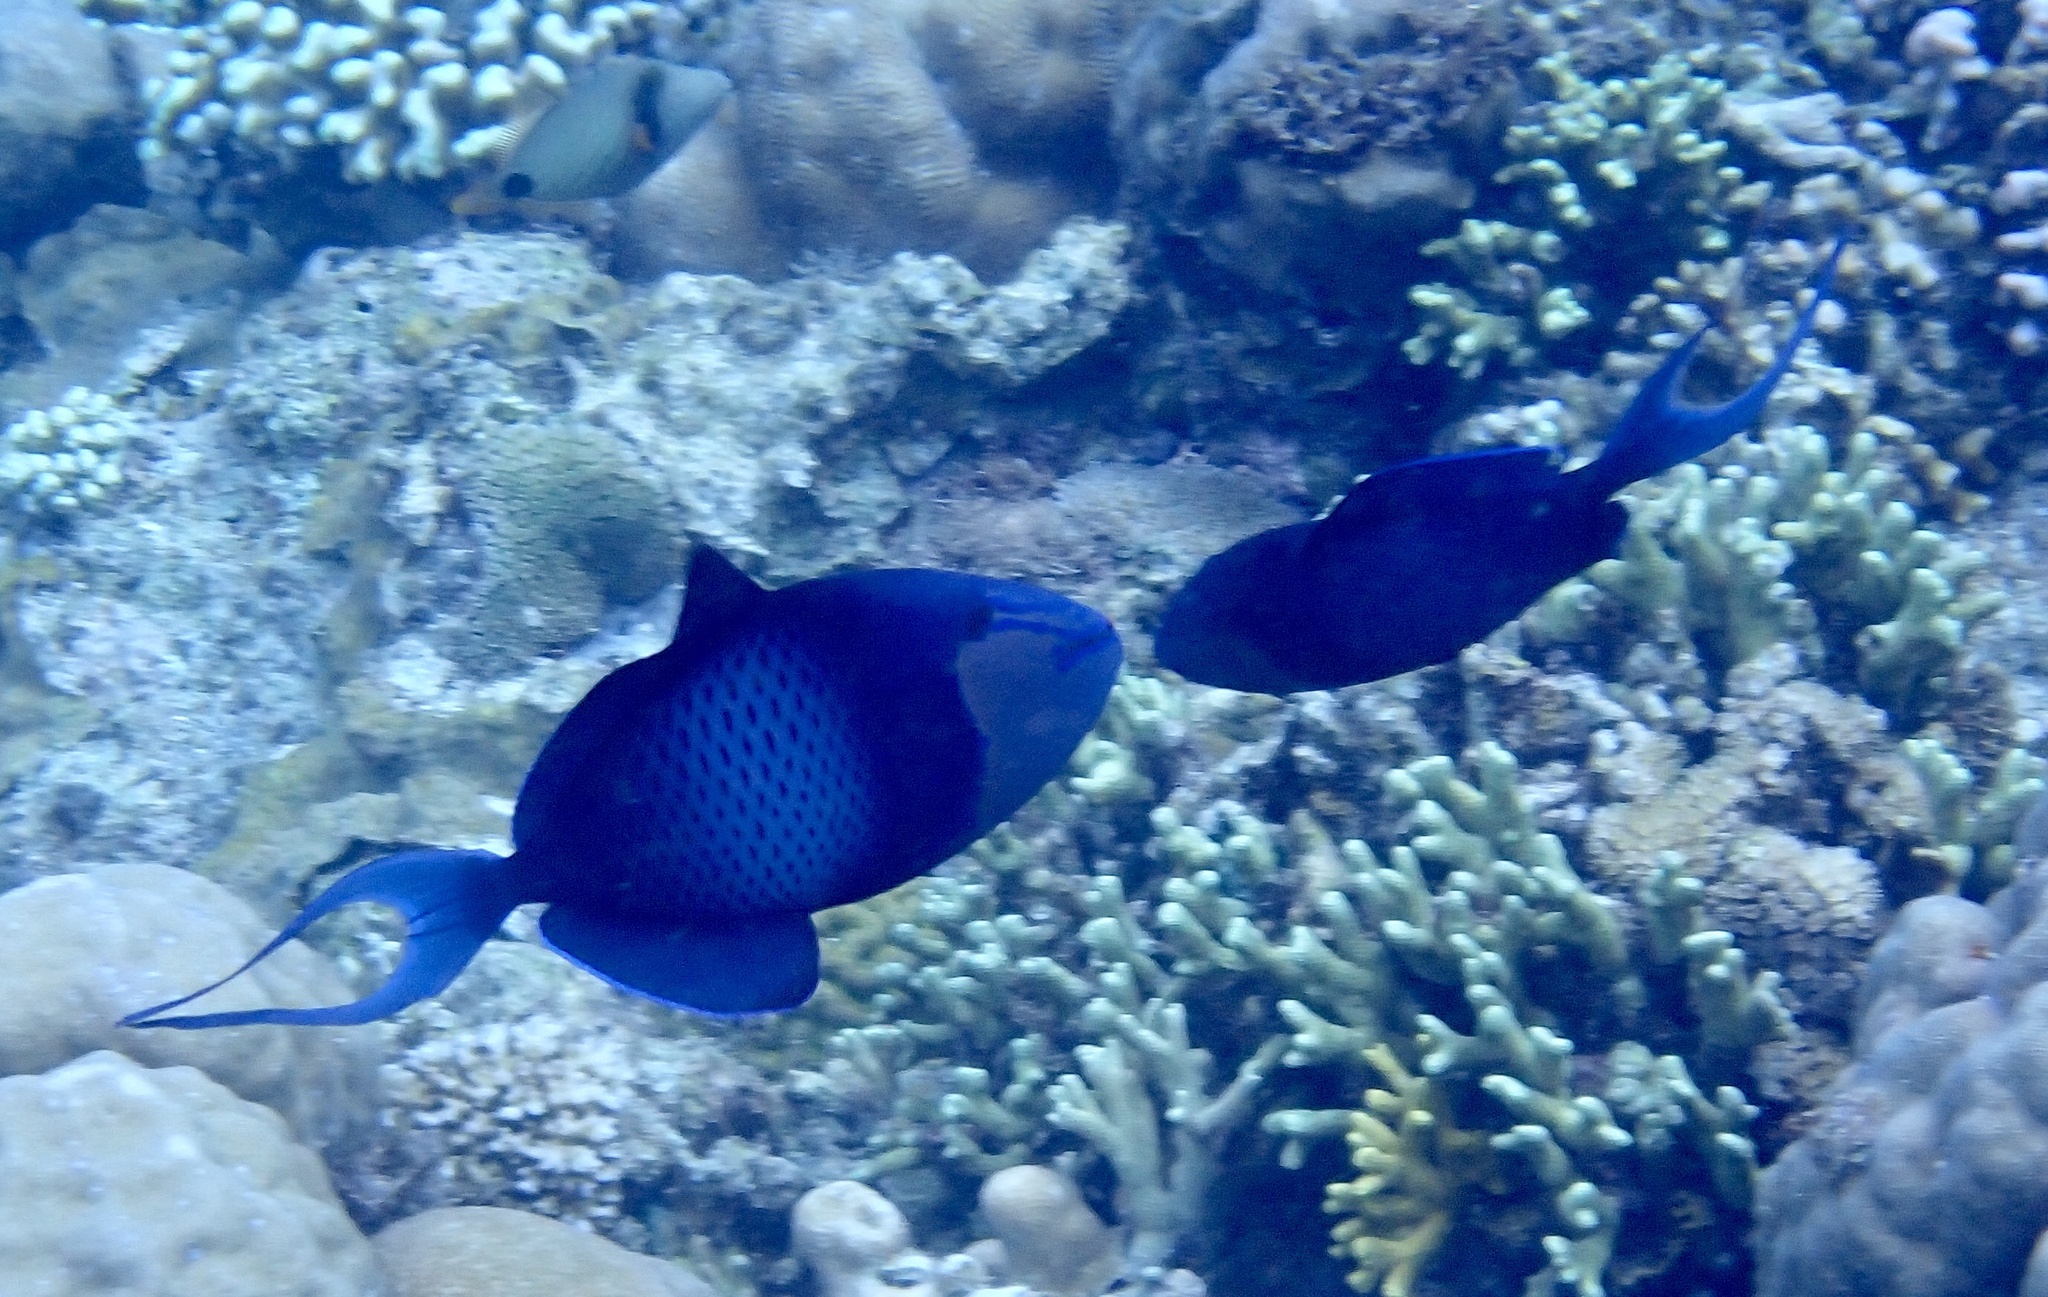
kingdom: Animalia
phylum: Chordata
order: Tetraodontiformes
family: Balistidae
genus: Odonus
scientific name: Odonus niger
